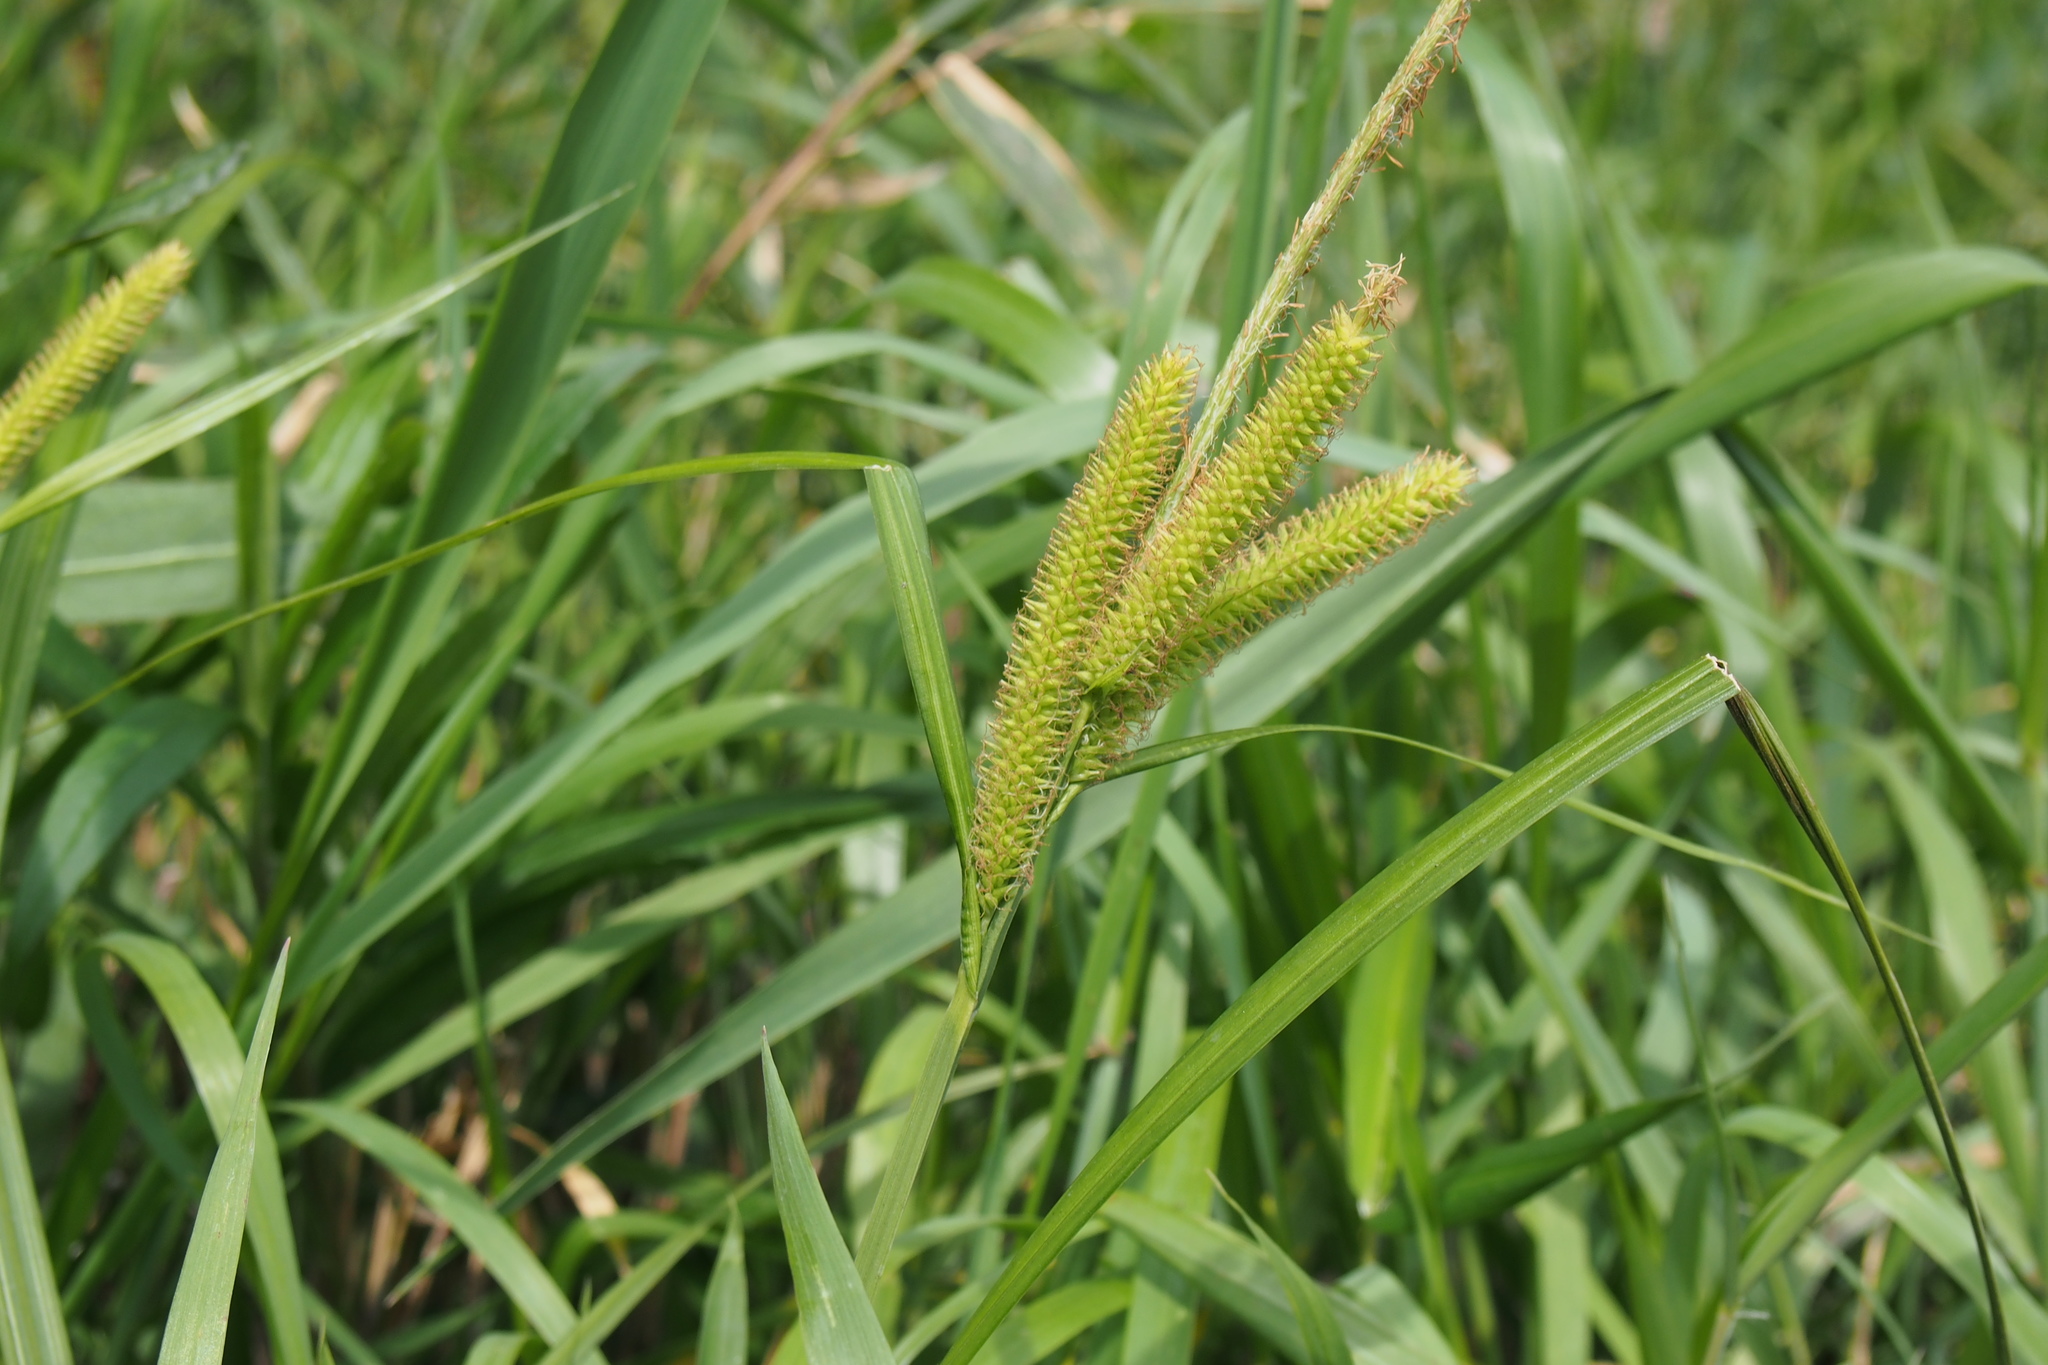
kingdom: Plantae
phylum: Tracheophyta
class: Liliopsida
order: Poales
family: Cyperaceae
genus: Carex
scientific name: Carex alopecuroides
